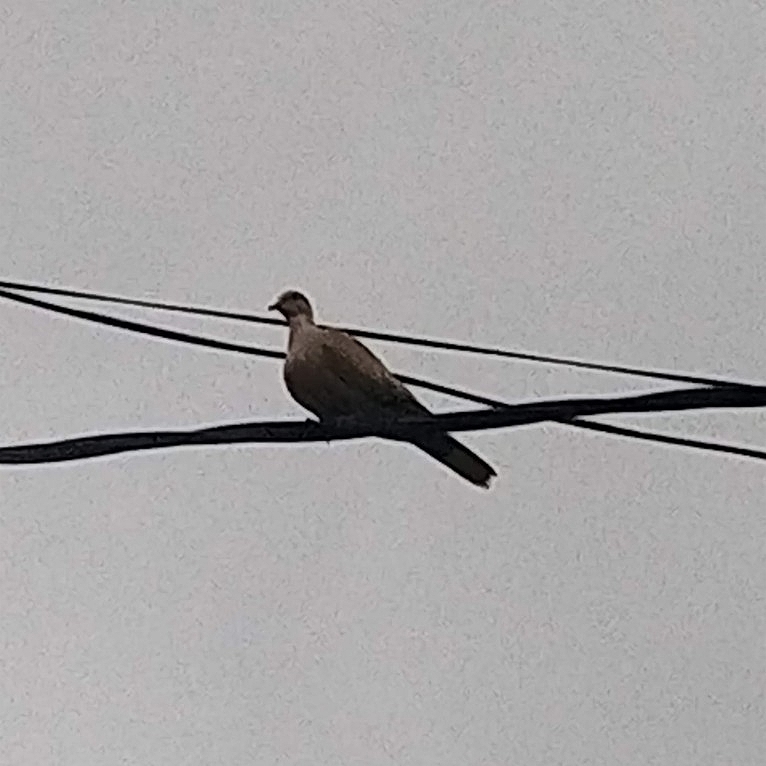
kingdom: Animalia
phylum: Chordata
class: Aves
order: Columbiformes
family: Columbidae
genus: Streptopelia
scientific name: Streptopelia decaocto
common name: Eurasian collared dove
